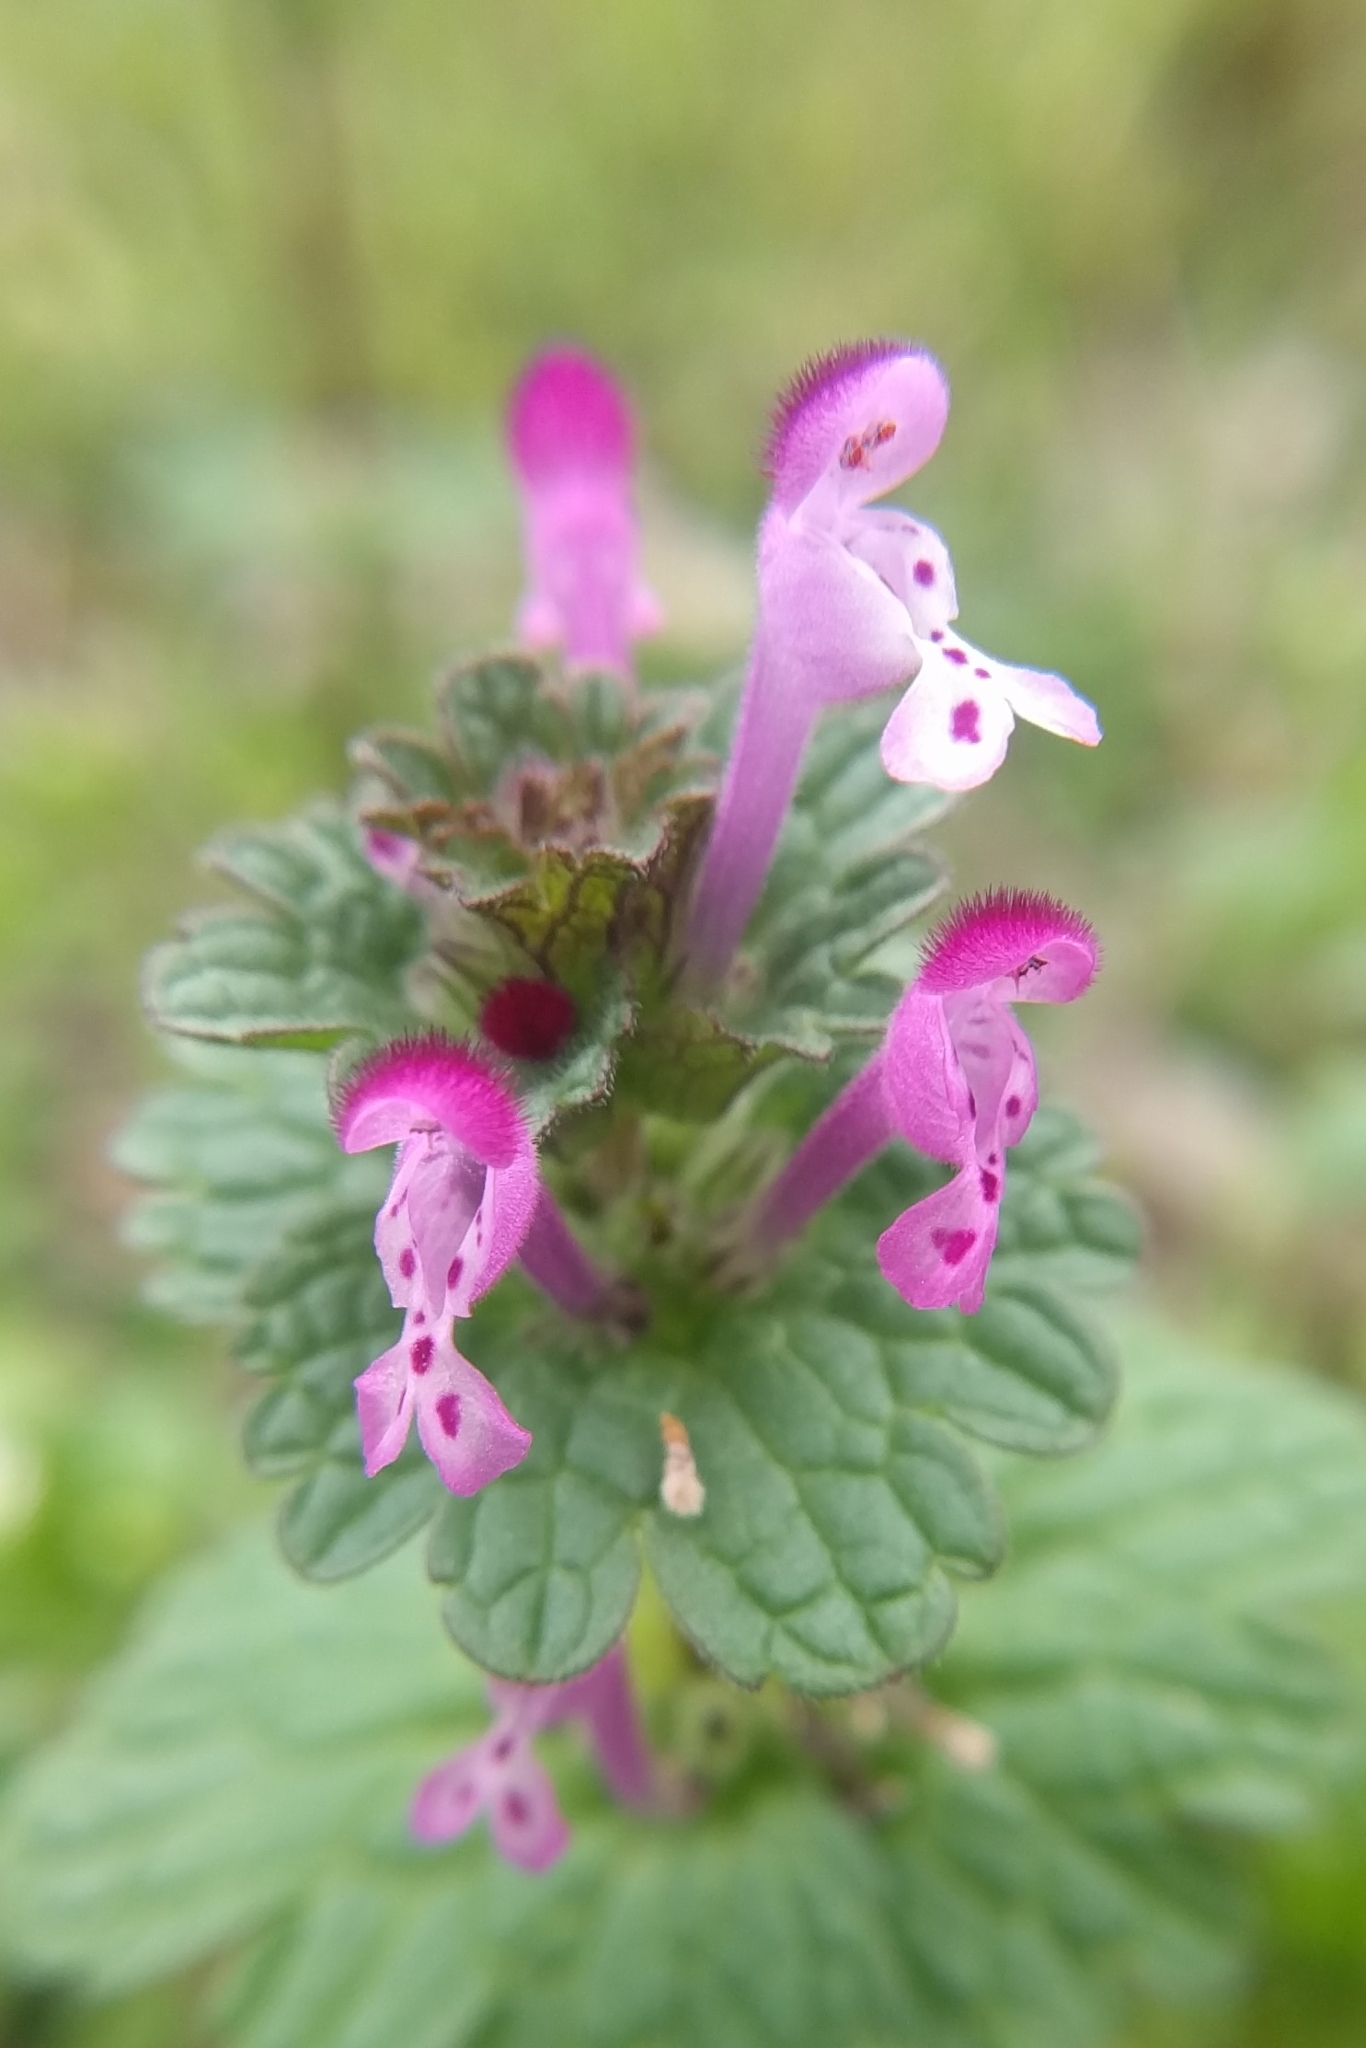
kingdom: Plantae
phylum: Tracheophyta
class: Magnoliopsida
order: Lamiales
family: Lamiaceae
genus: Lamium
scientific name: Lamium amplexicaule
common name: Henbit dead-nettle
